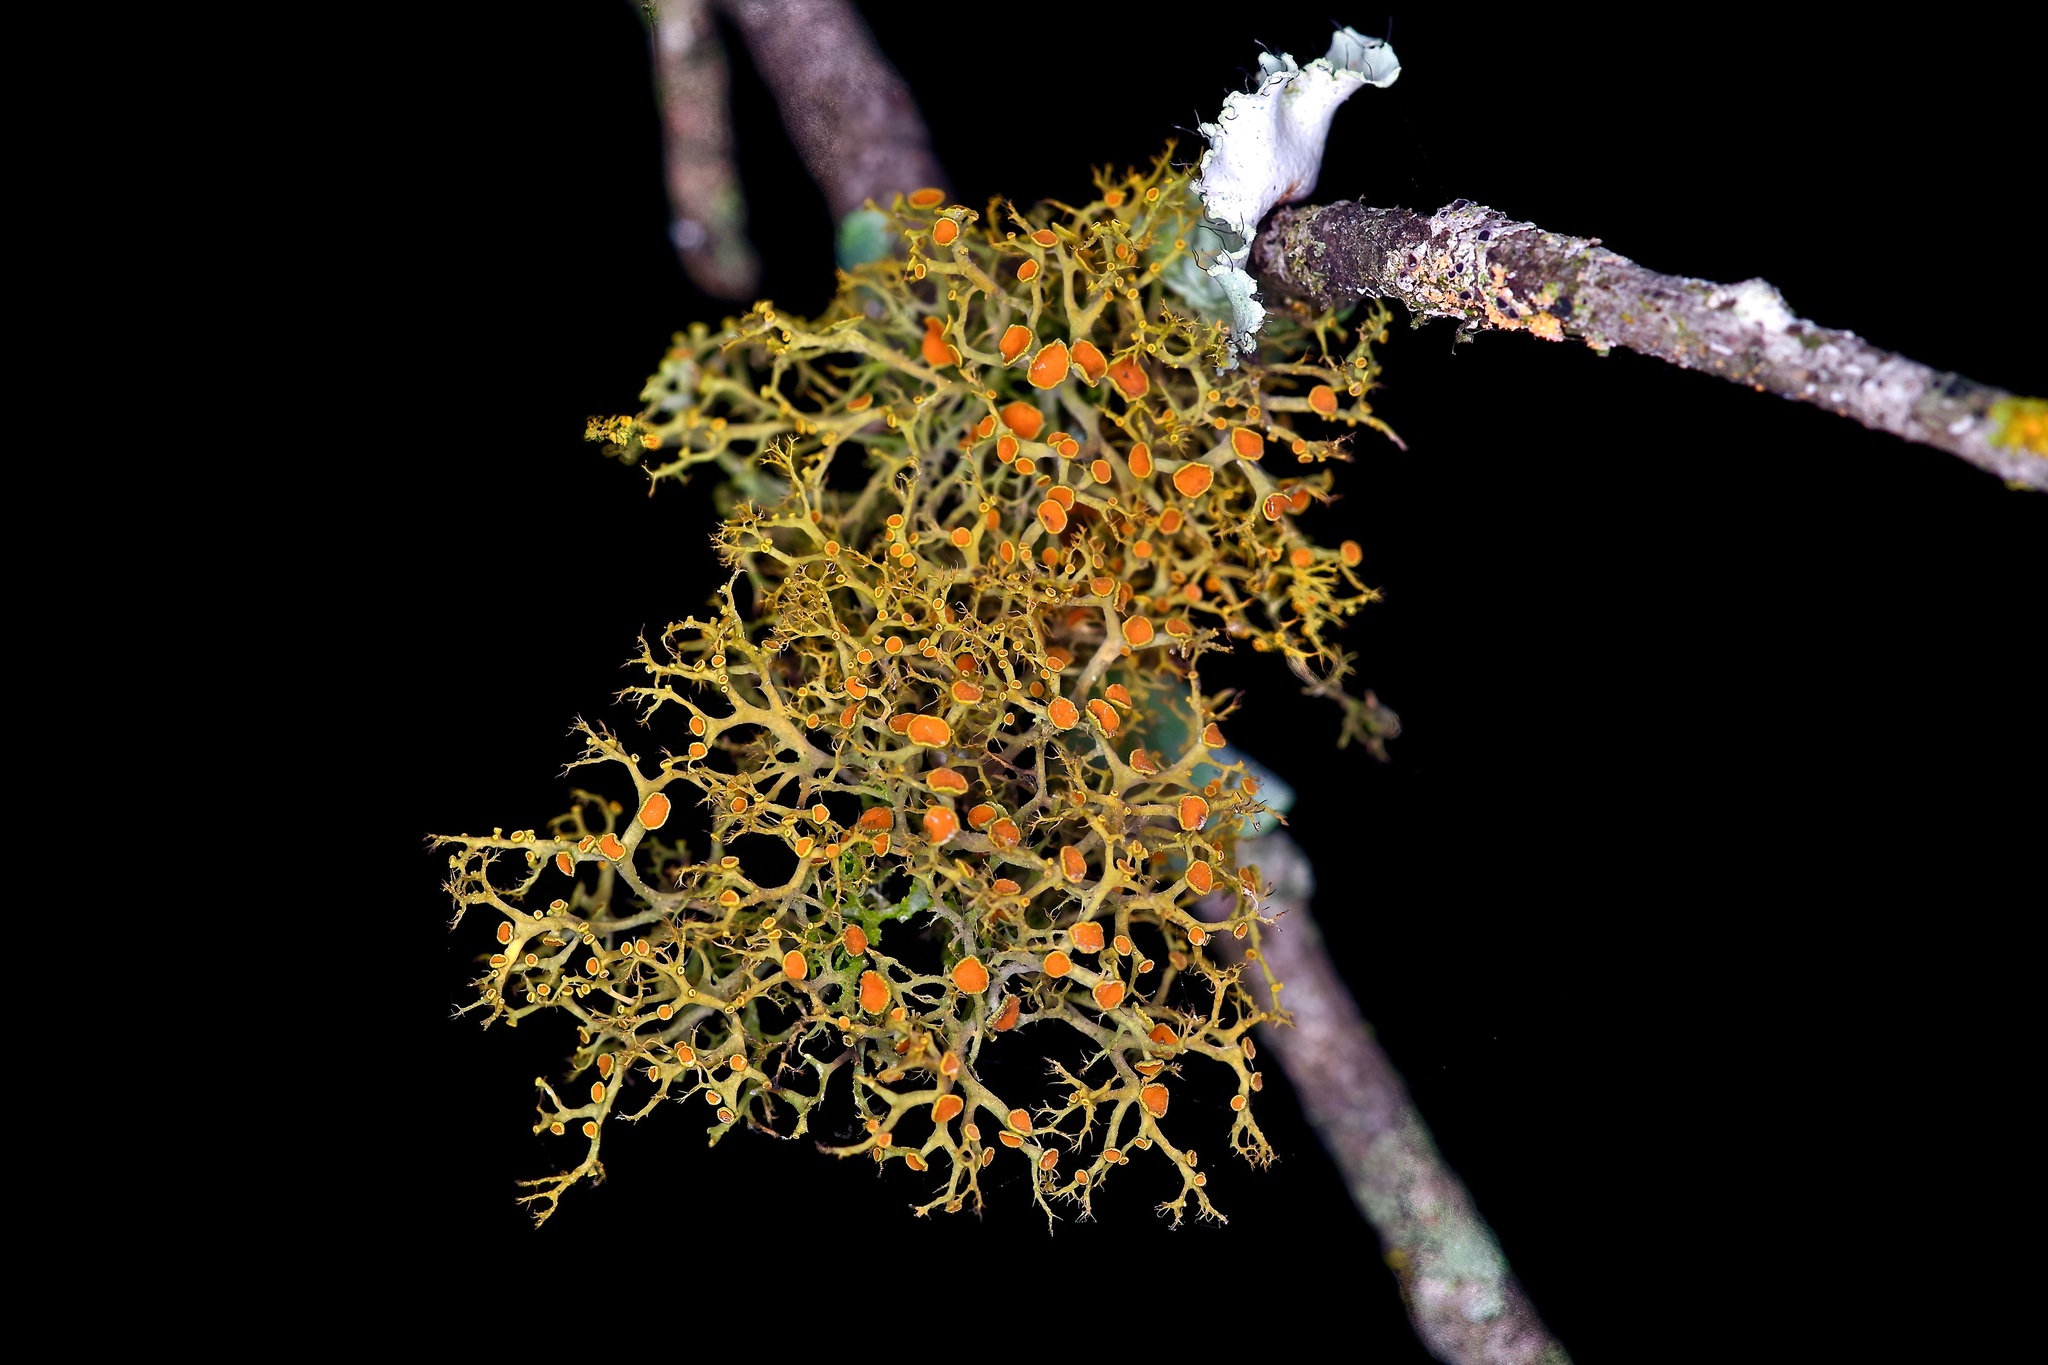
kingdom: Fungi
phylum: Ascomycota
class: Lecanoromycetes
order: Teloschistales
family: Teloschistaceae
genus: Teloschistes
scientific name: Teloschistes exilis
